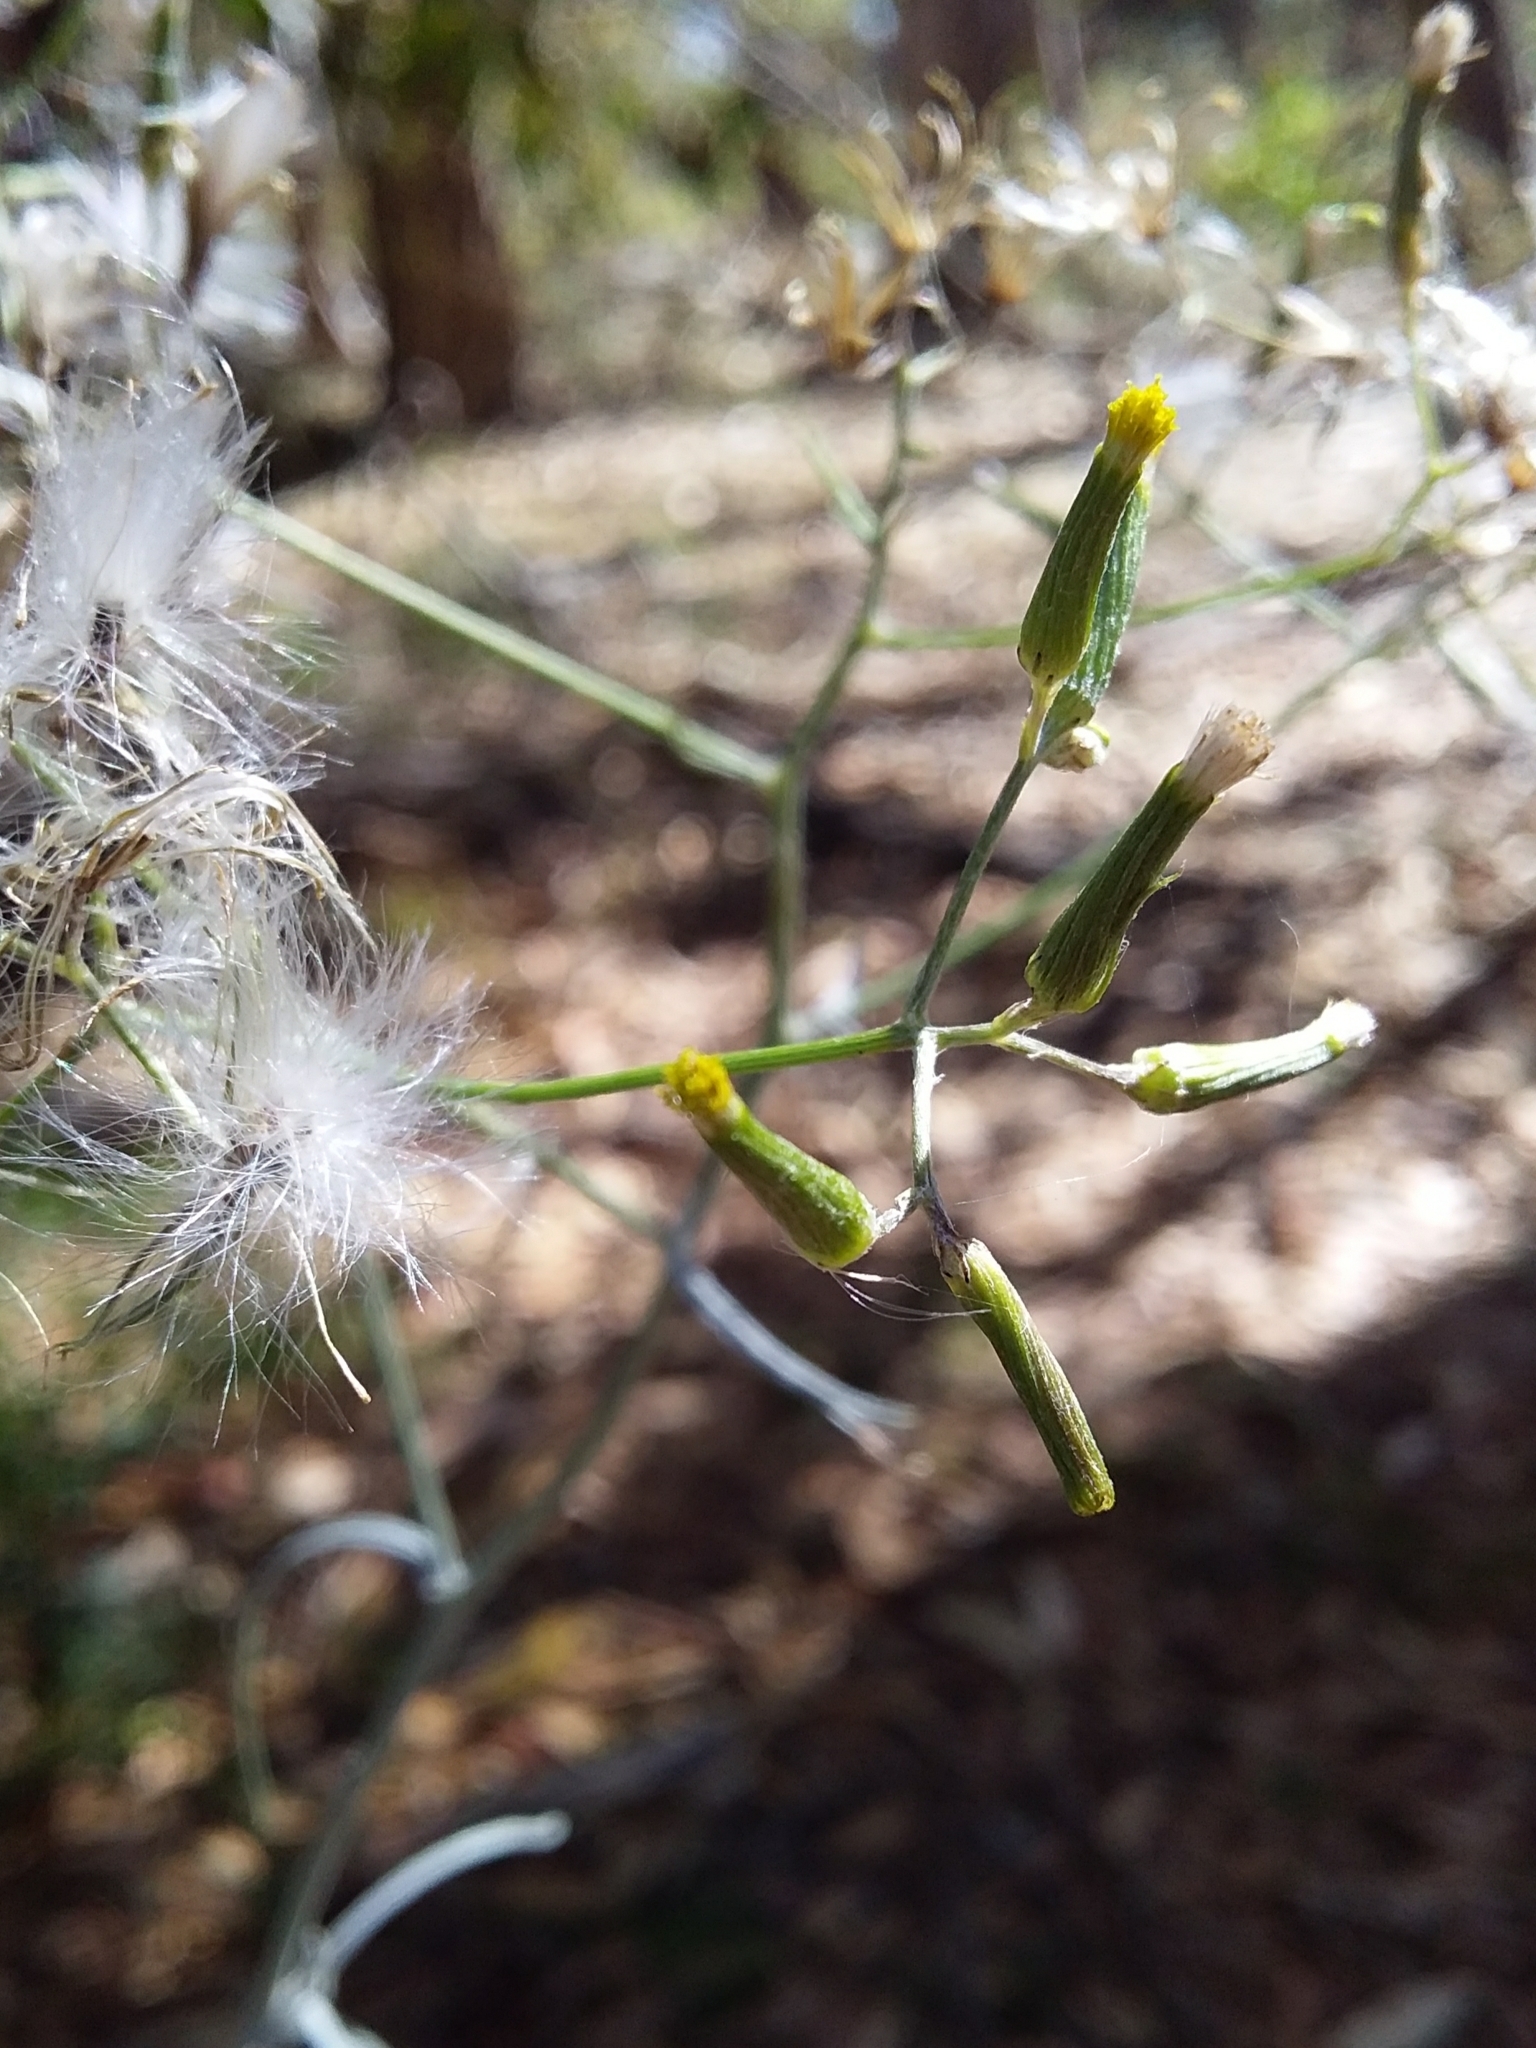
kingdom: Plantae
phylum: Tracheophyta
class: Magnoliopsida
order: Asterales
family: Asteraceae
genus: Senecio
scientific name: Senecio quadridentatus
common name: Cotton fireweed
